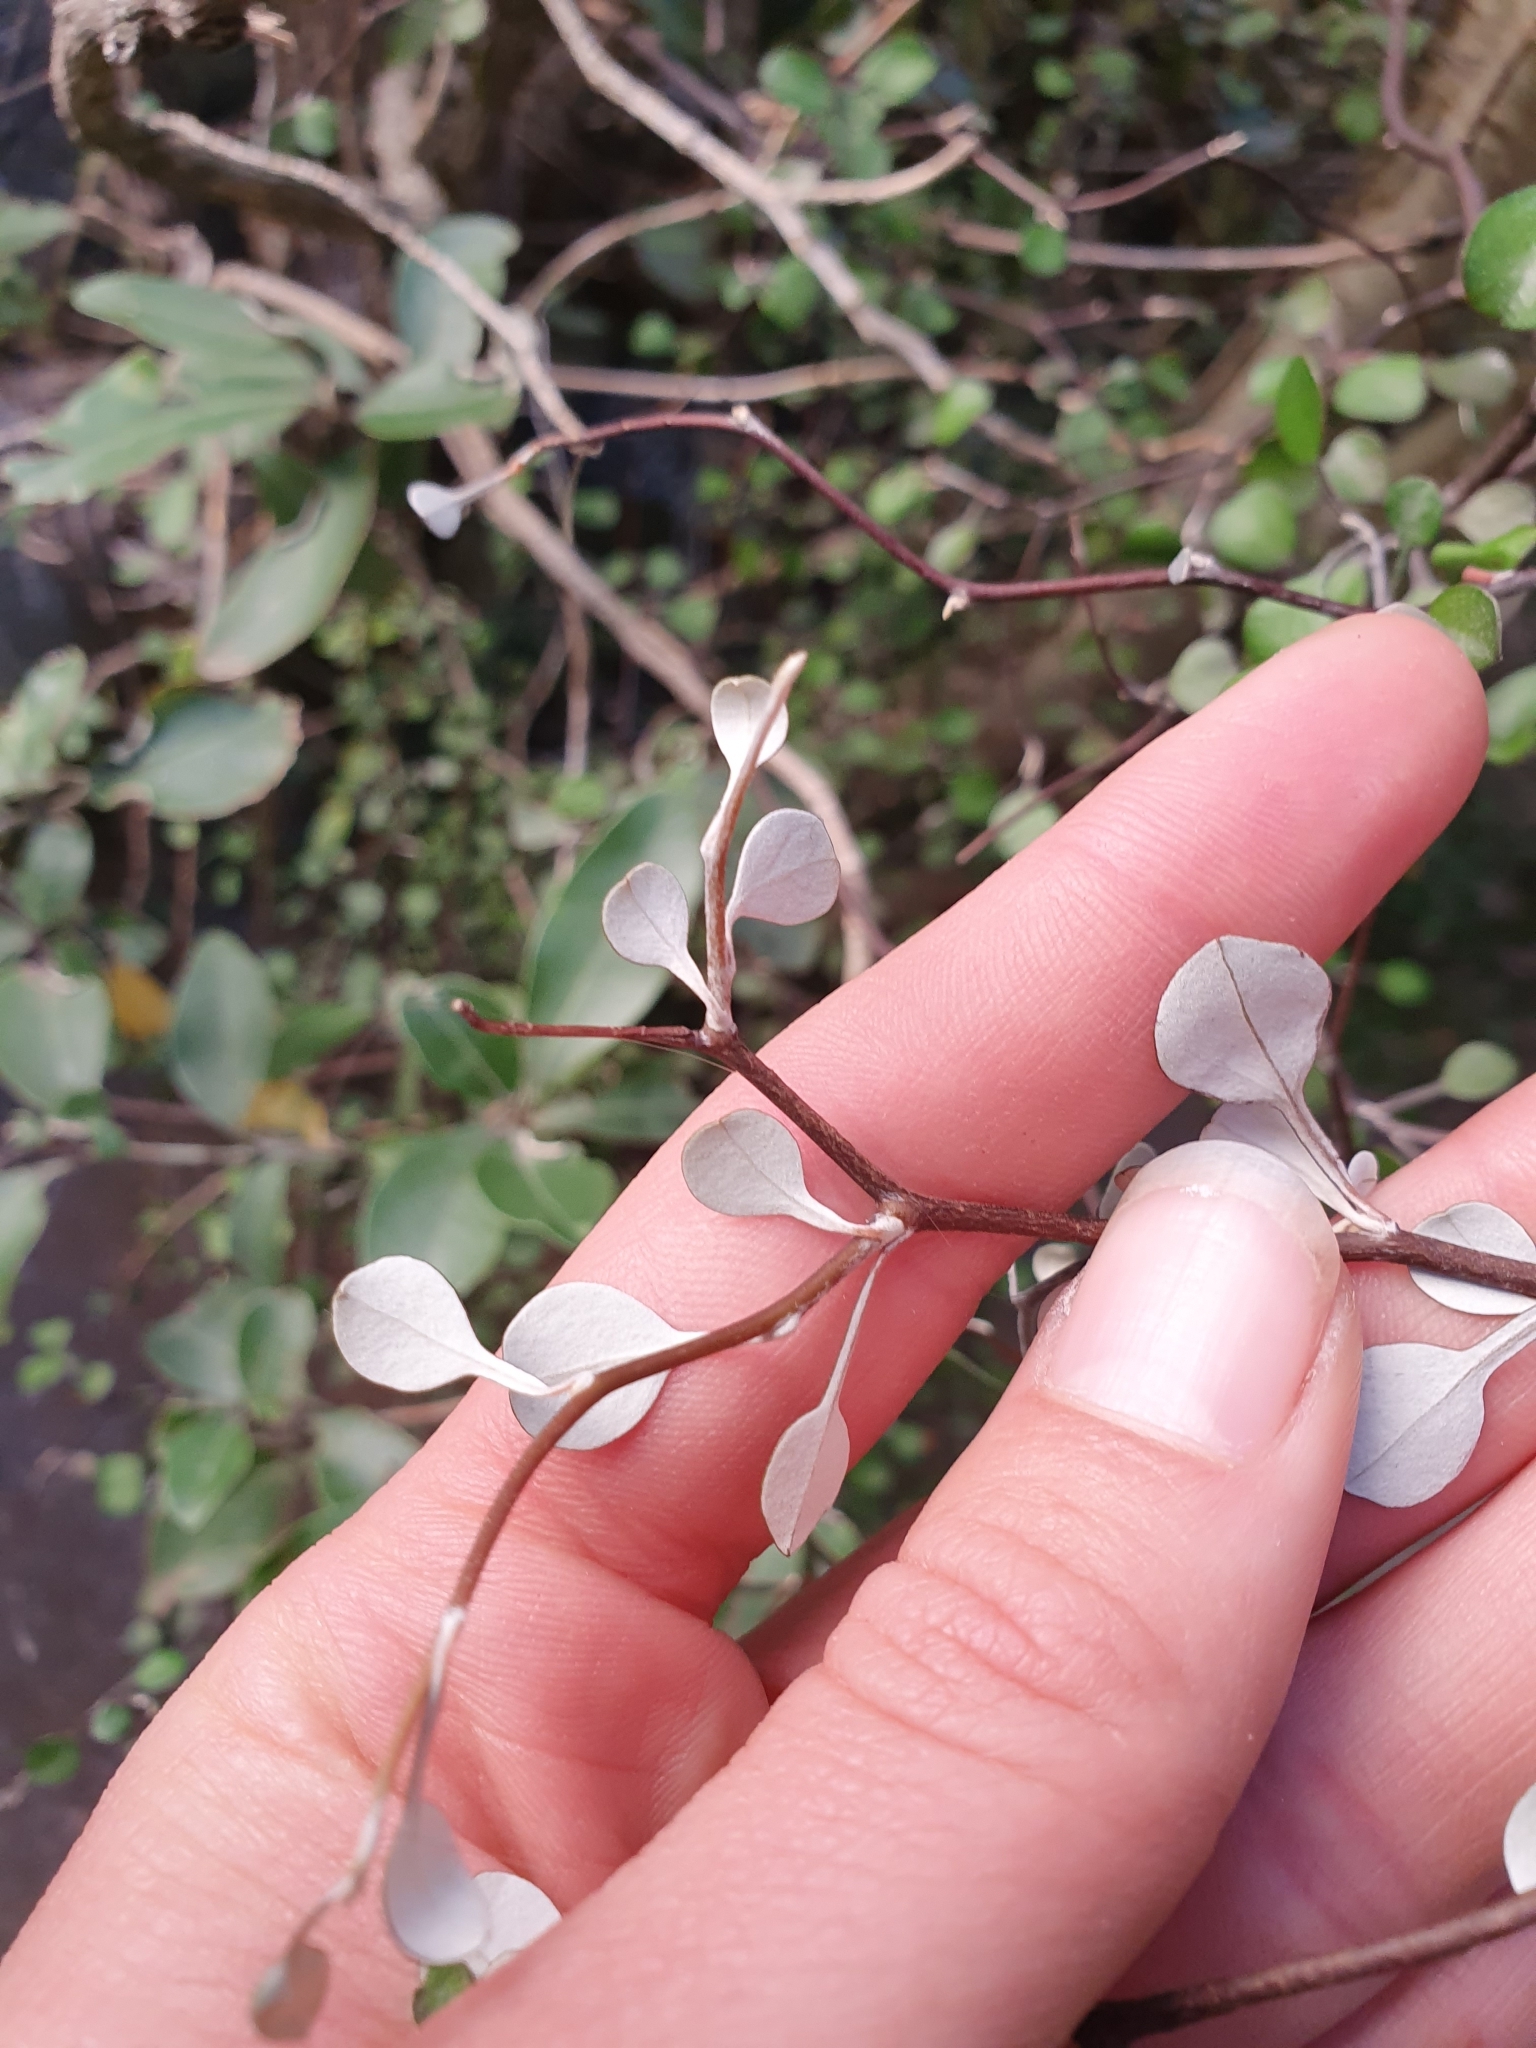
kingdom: Plantae
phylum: Tracheophyta
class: Magnoliopsida
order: Asterales
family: Argophyllaceae
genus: Corokia
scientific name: Corokia cotoneaster
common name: Wire nettingbush
